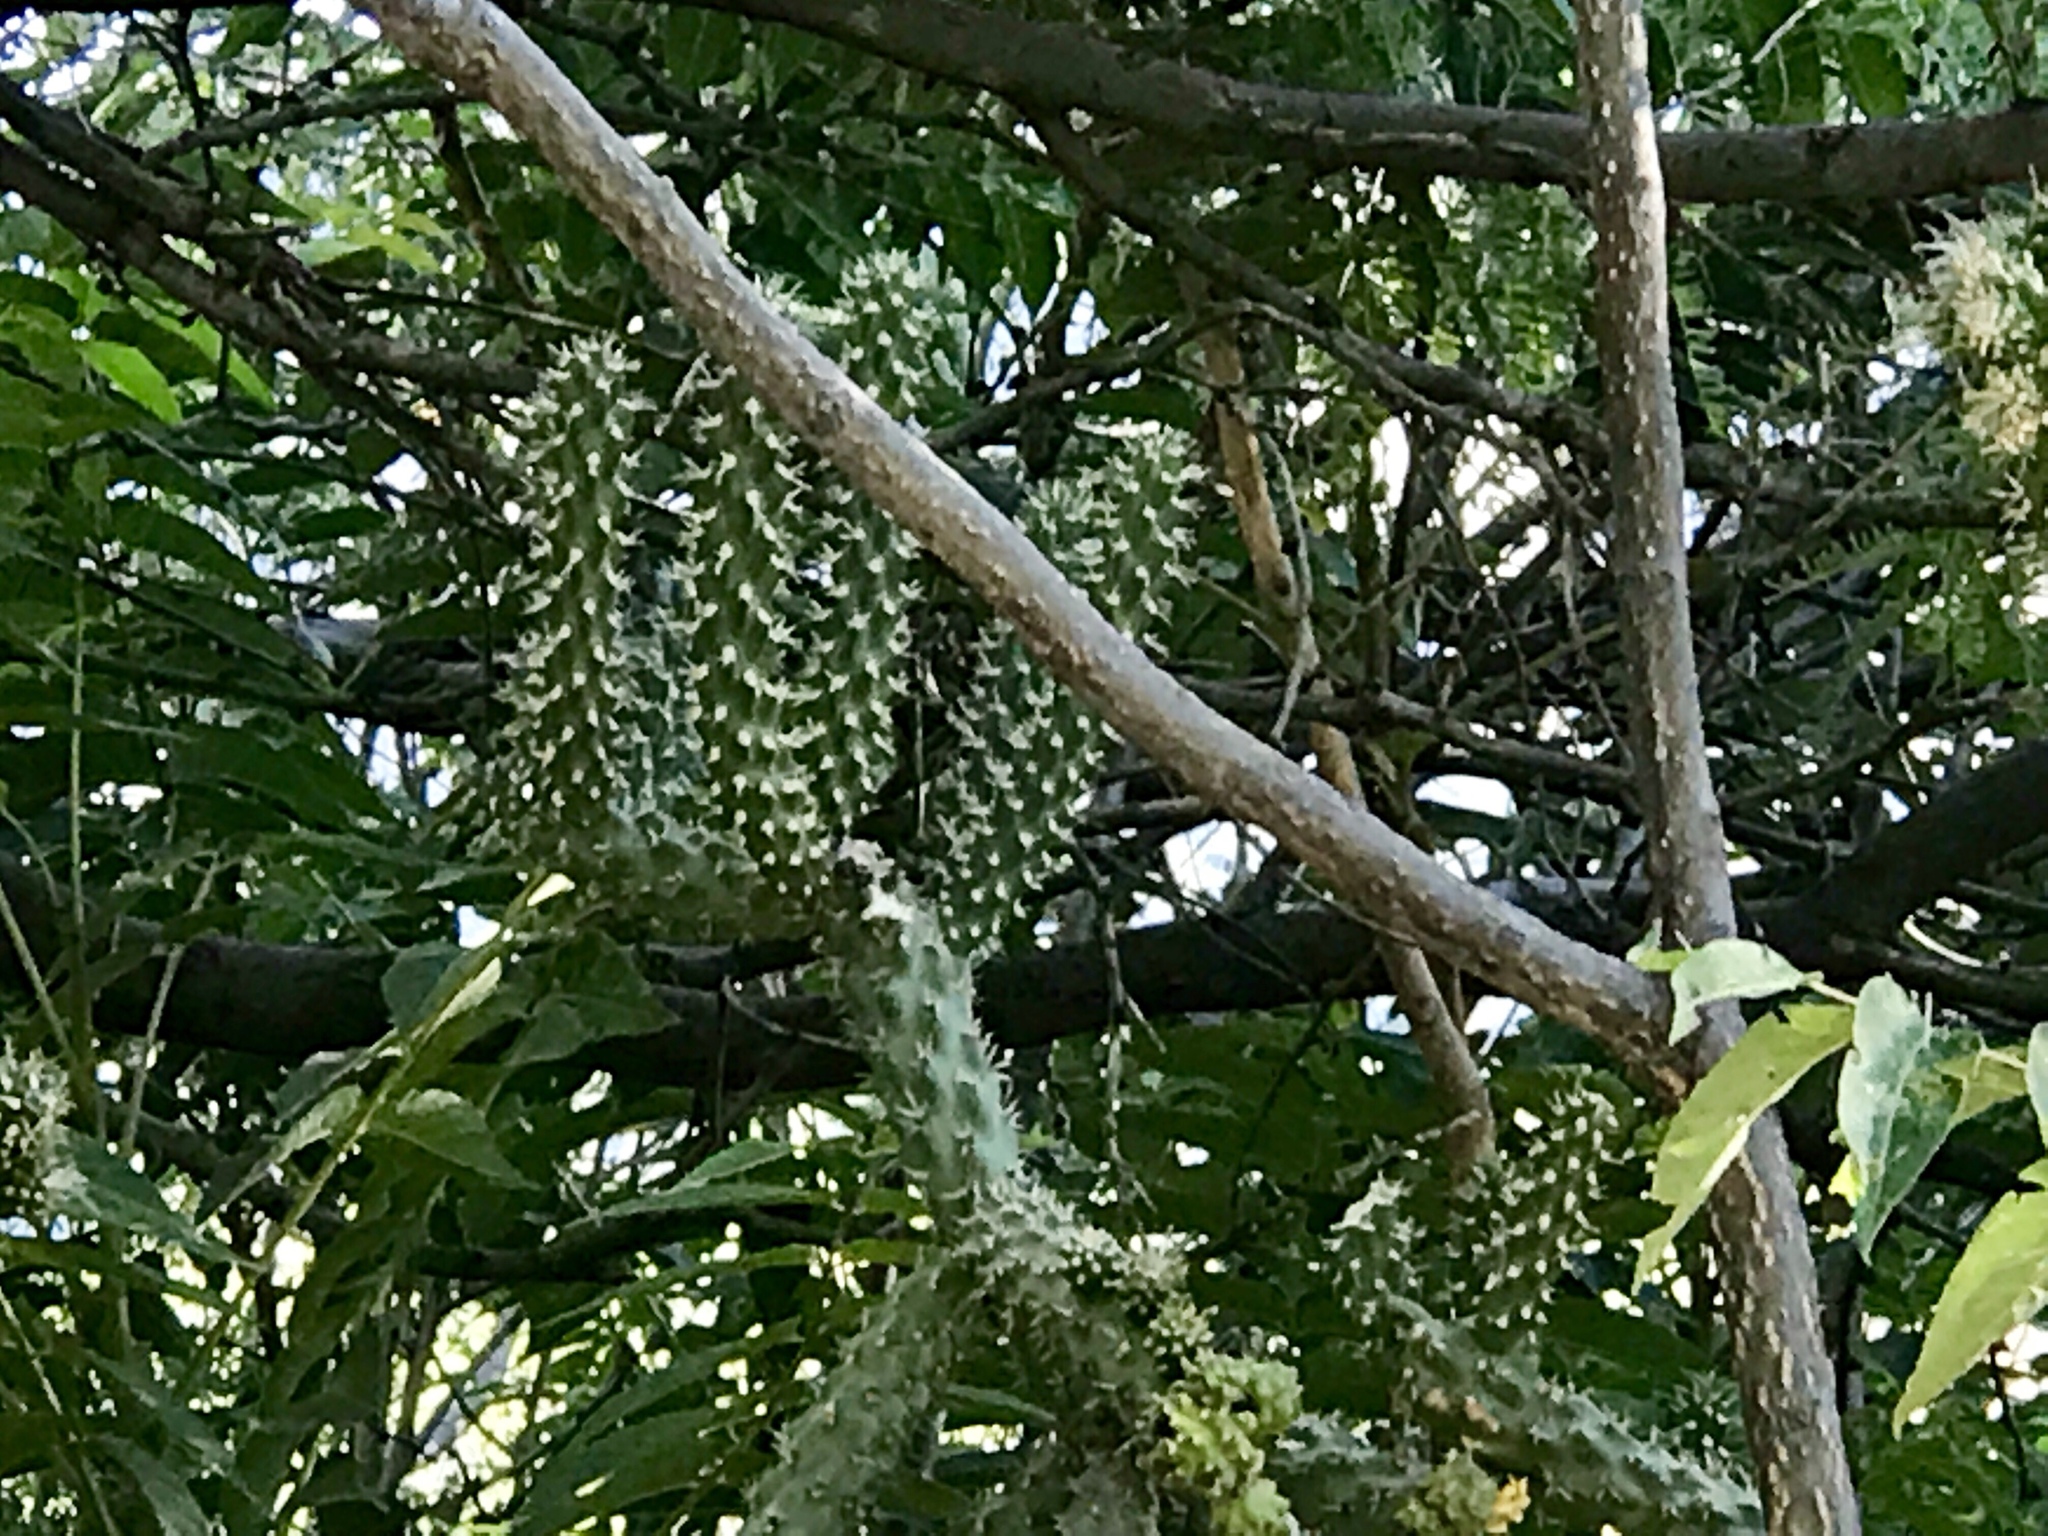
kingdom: Plantae
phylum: Tracheophyta
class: Magnoliopsida
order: Caryophyllales
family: Cactaceae
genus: Cylindropuntia
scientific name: Cylindropuntia imbricata
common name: Candelabrum cactus
